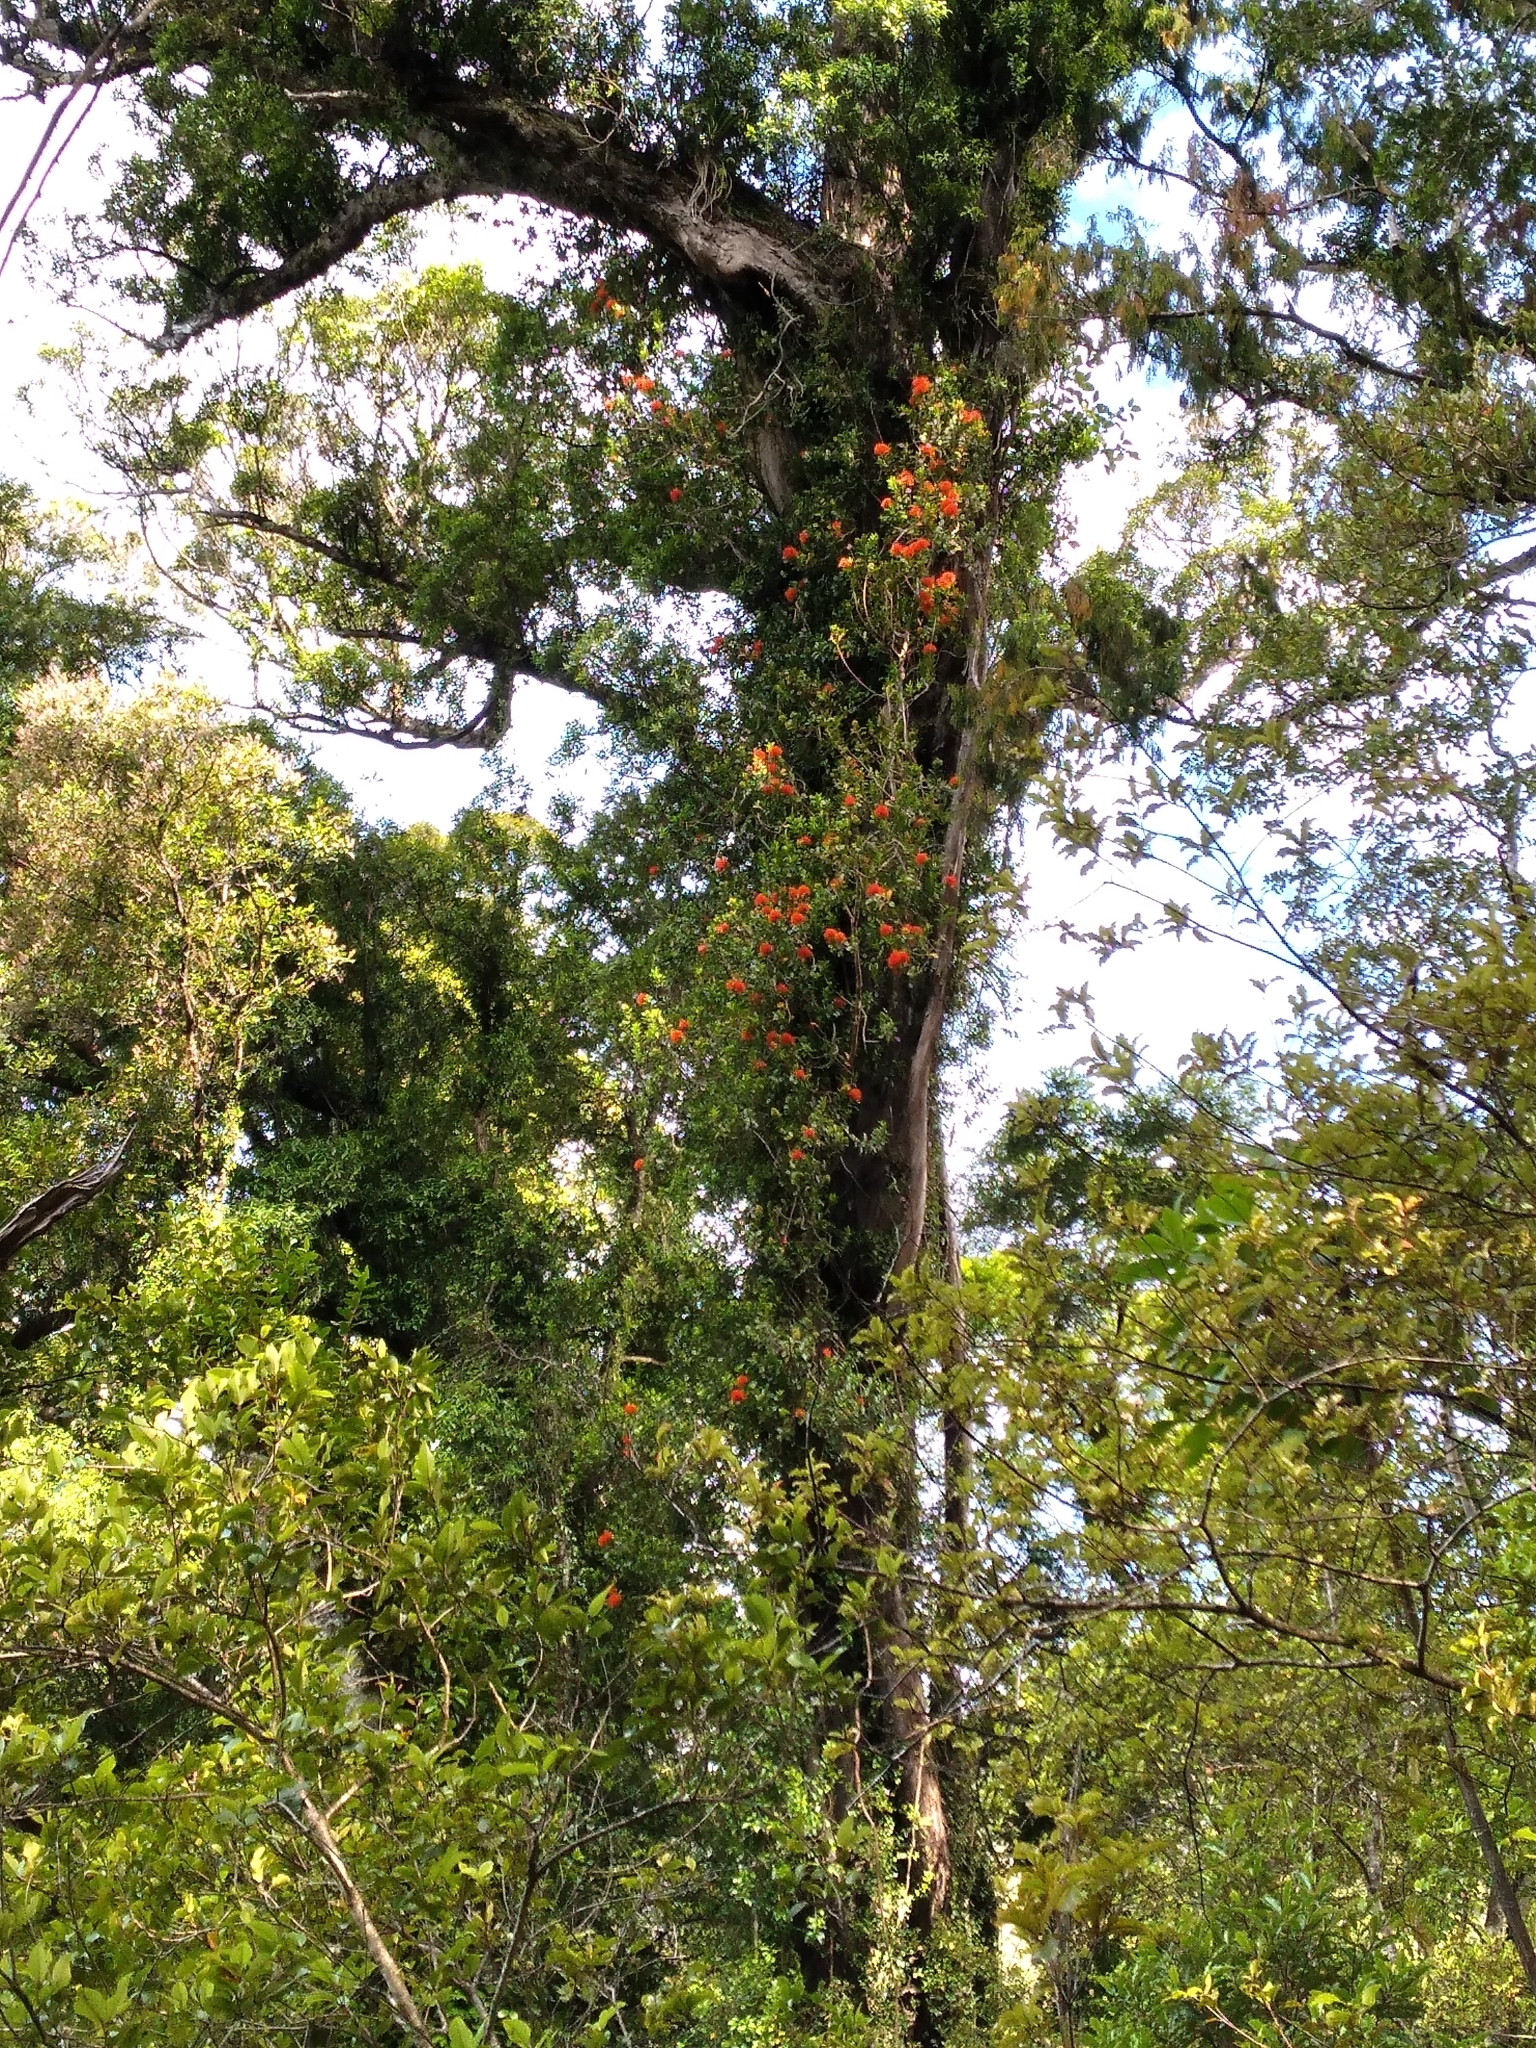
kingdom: Plantae
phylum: Tracheophyta
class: Magnoliopsida
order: Myrtales
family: Myrtaceae
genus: Metrosideros
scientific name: Metrosideros fulgens
